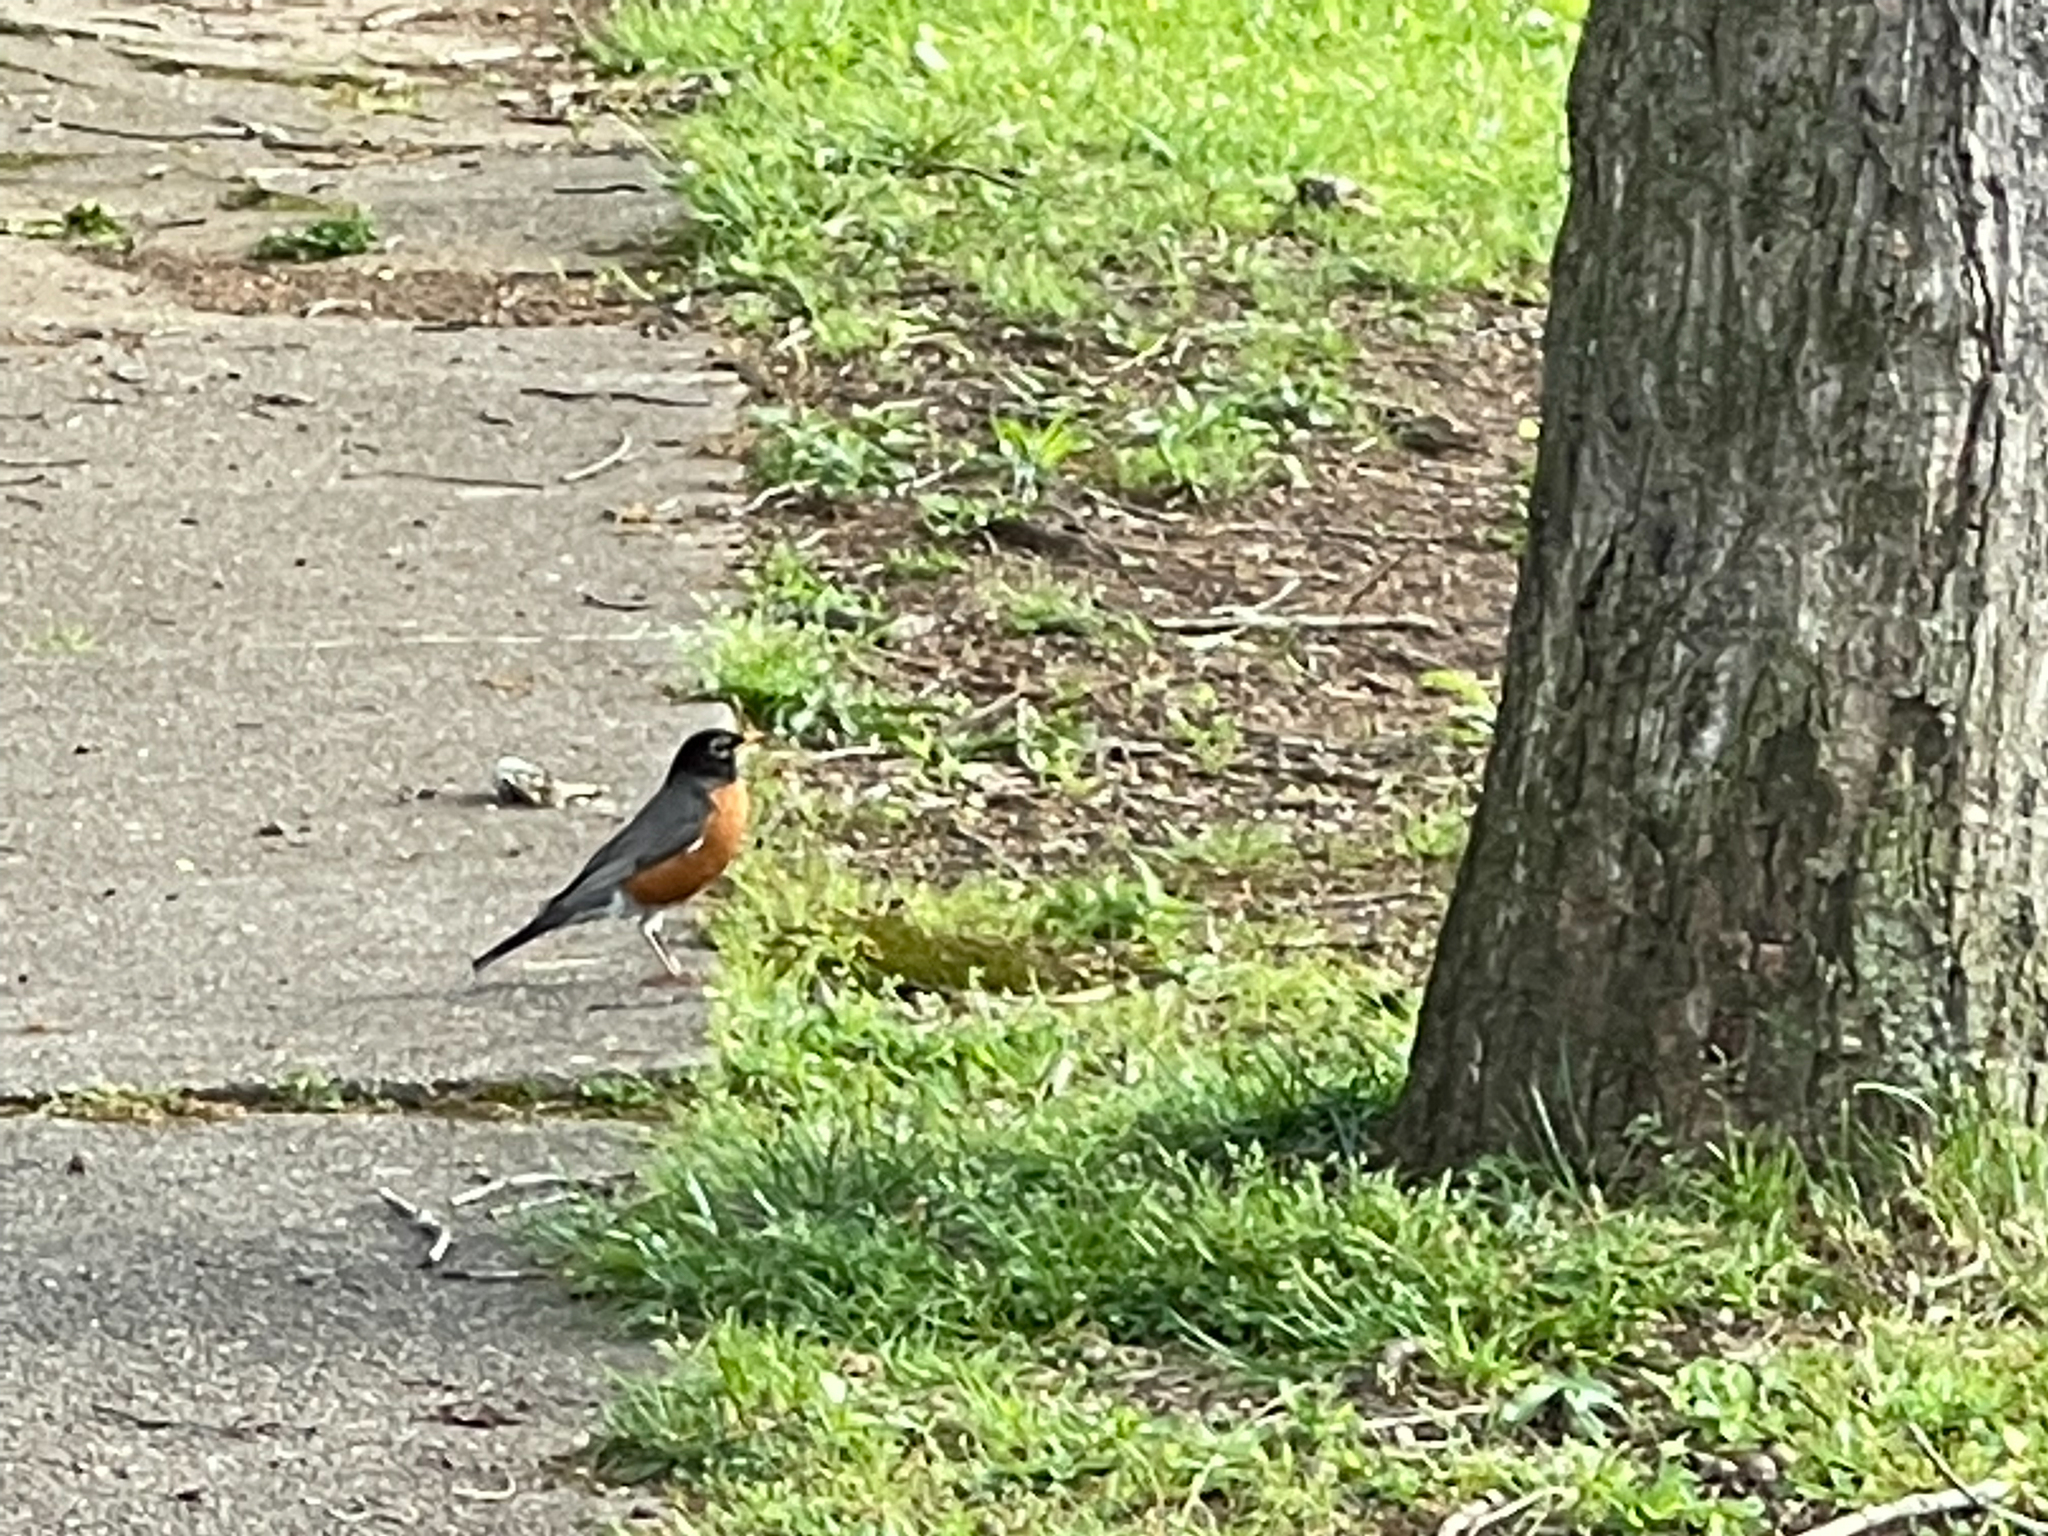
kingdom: Animalia
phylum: Chordata
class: Aves
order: Passeriformes
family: Turdidae
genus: Turdus
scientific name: Turdus migratorius
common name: American robin
